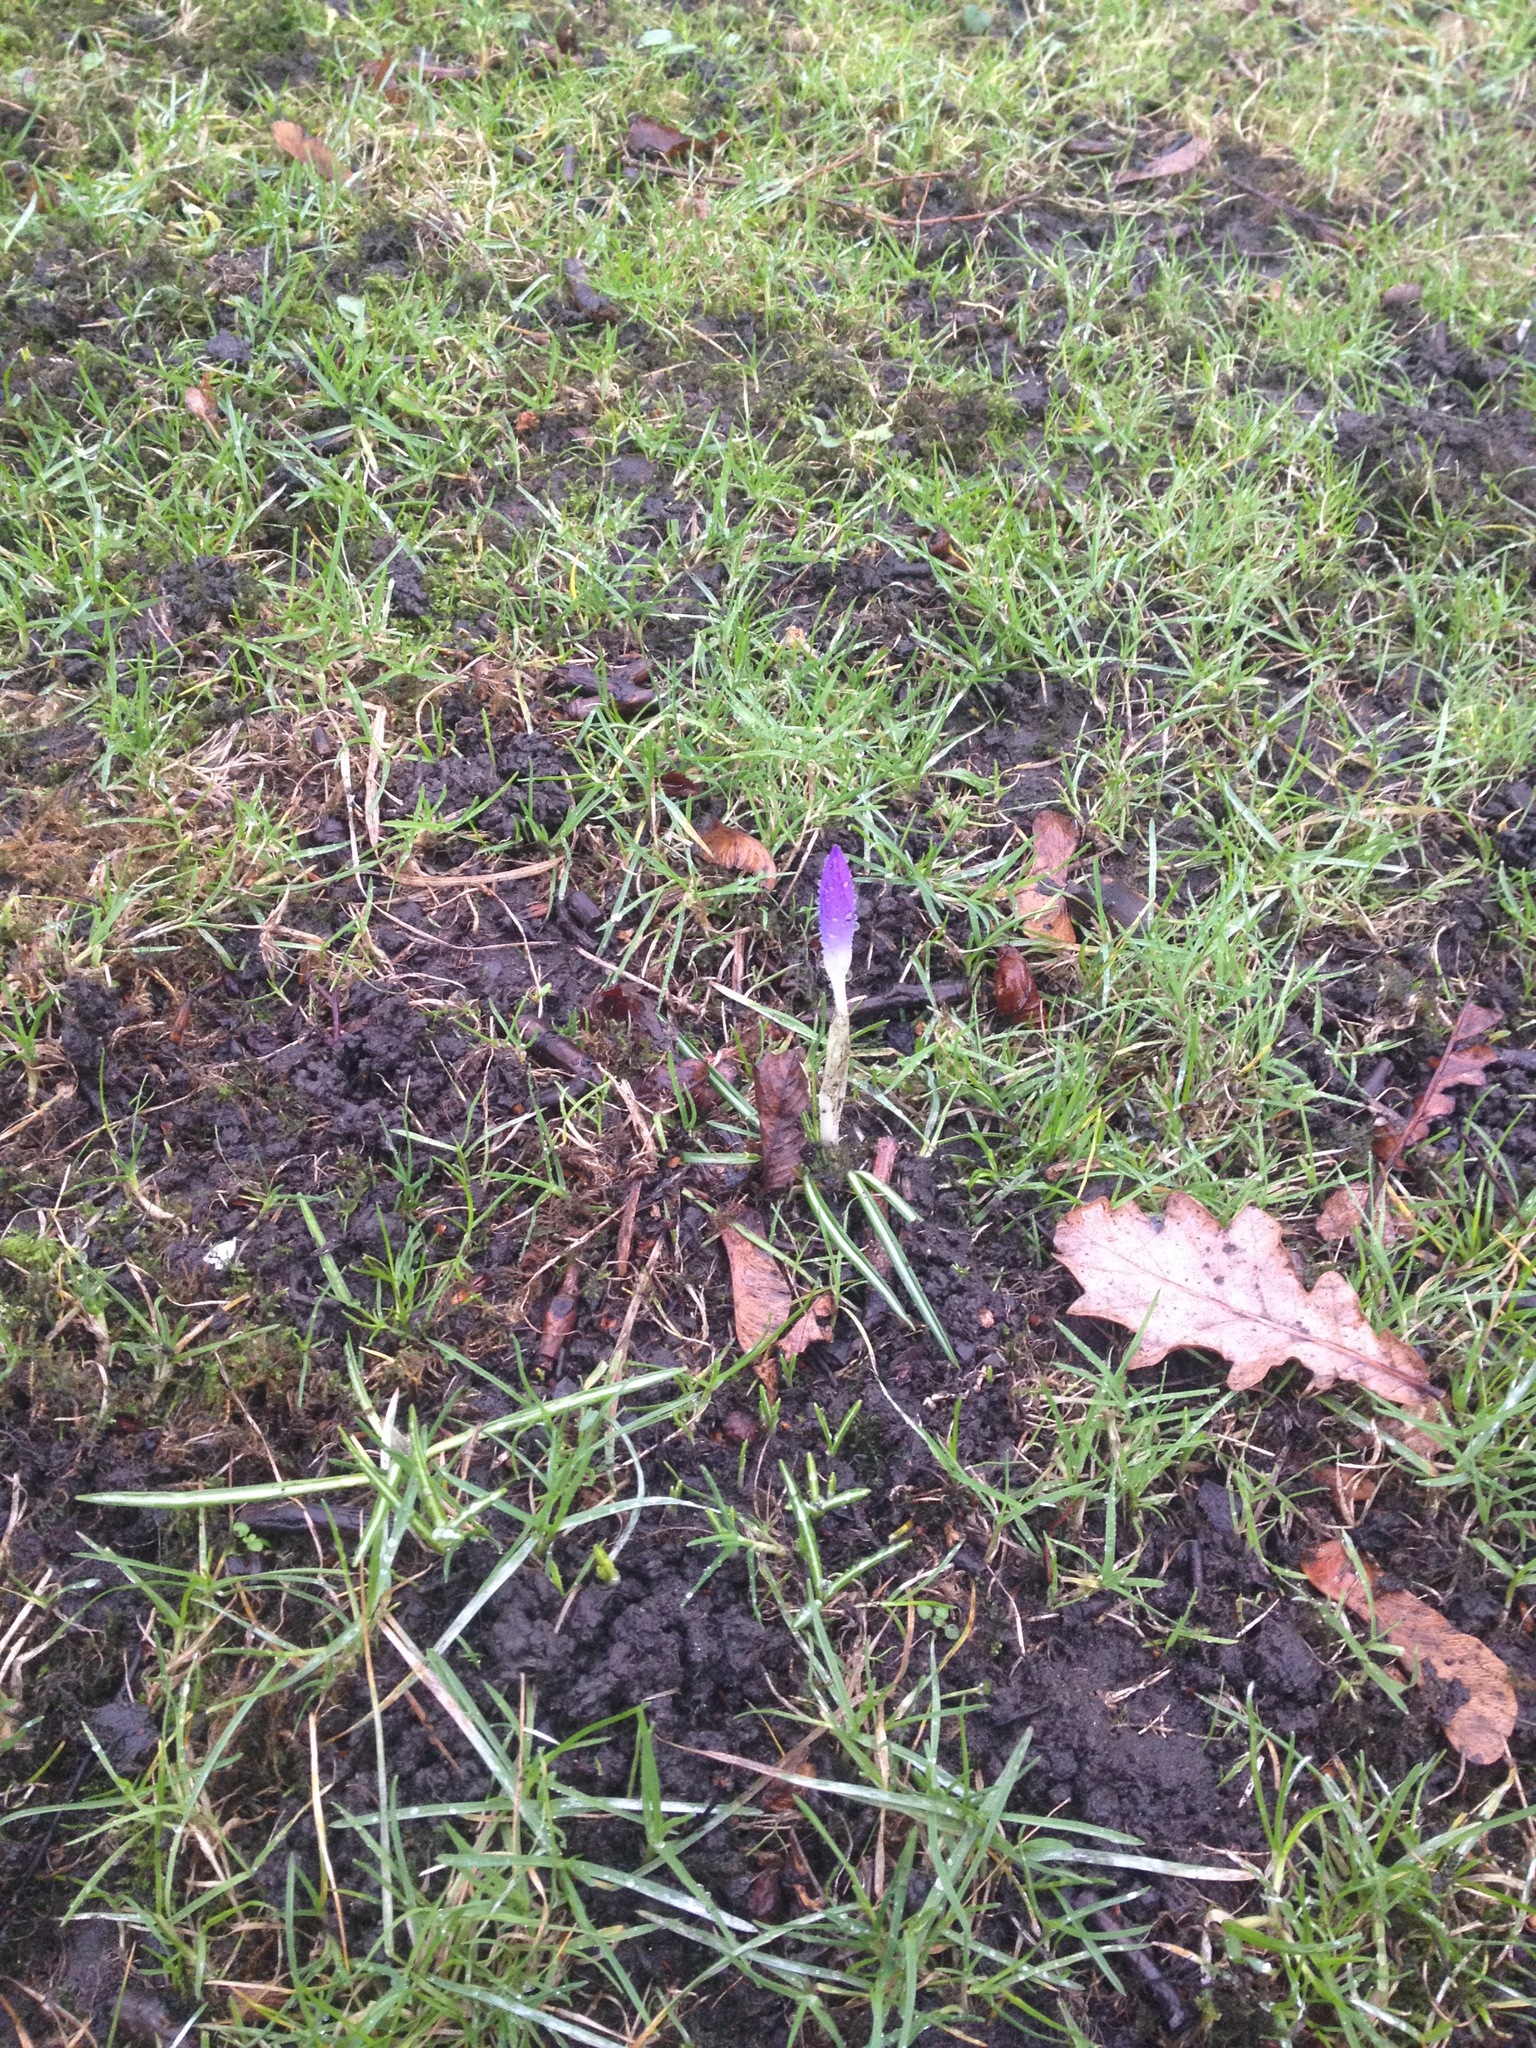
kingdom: Plantae
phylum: Tracheophyta
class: Liliopsida
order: Asparagales
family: Iridaceae
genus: Crocus
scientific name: Crocus tommasinianus
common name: Early crocus
